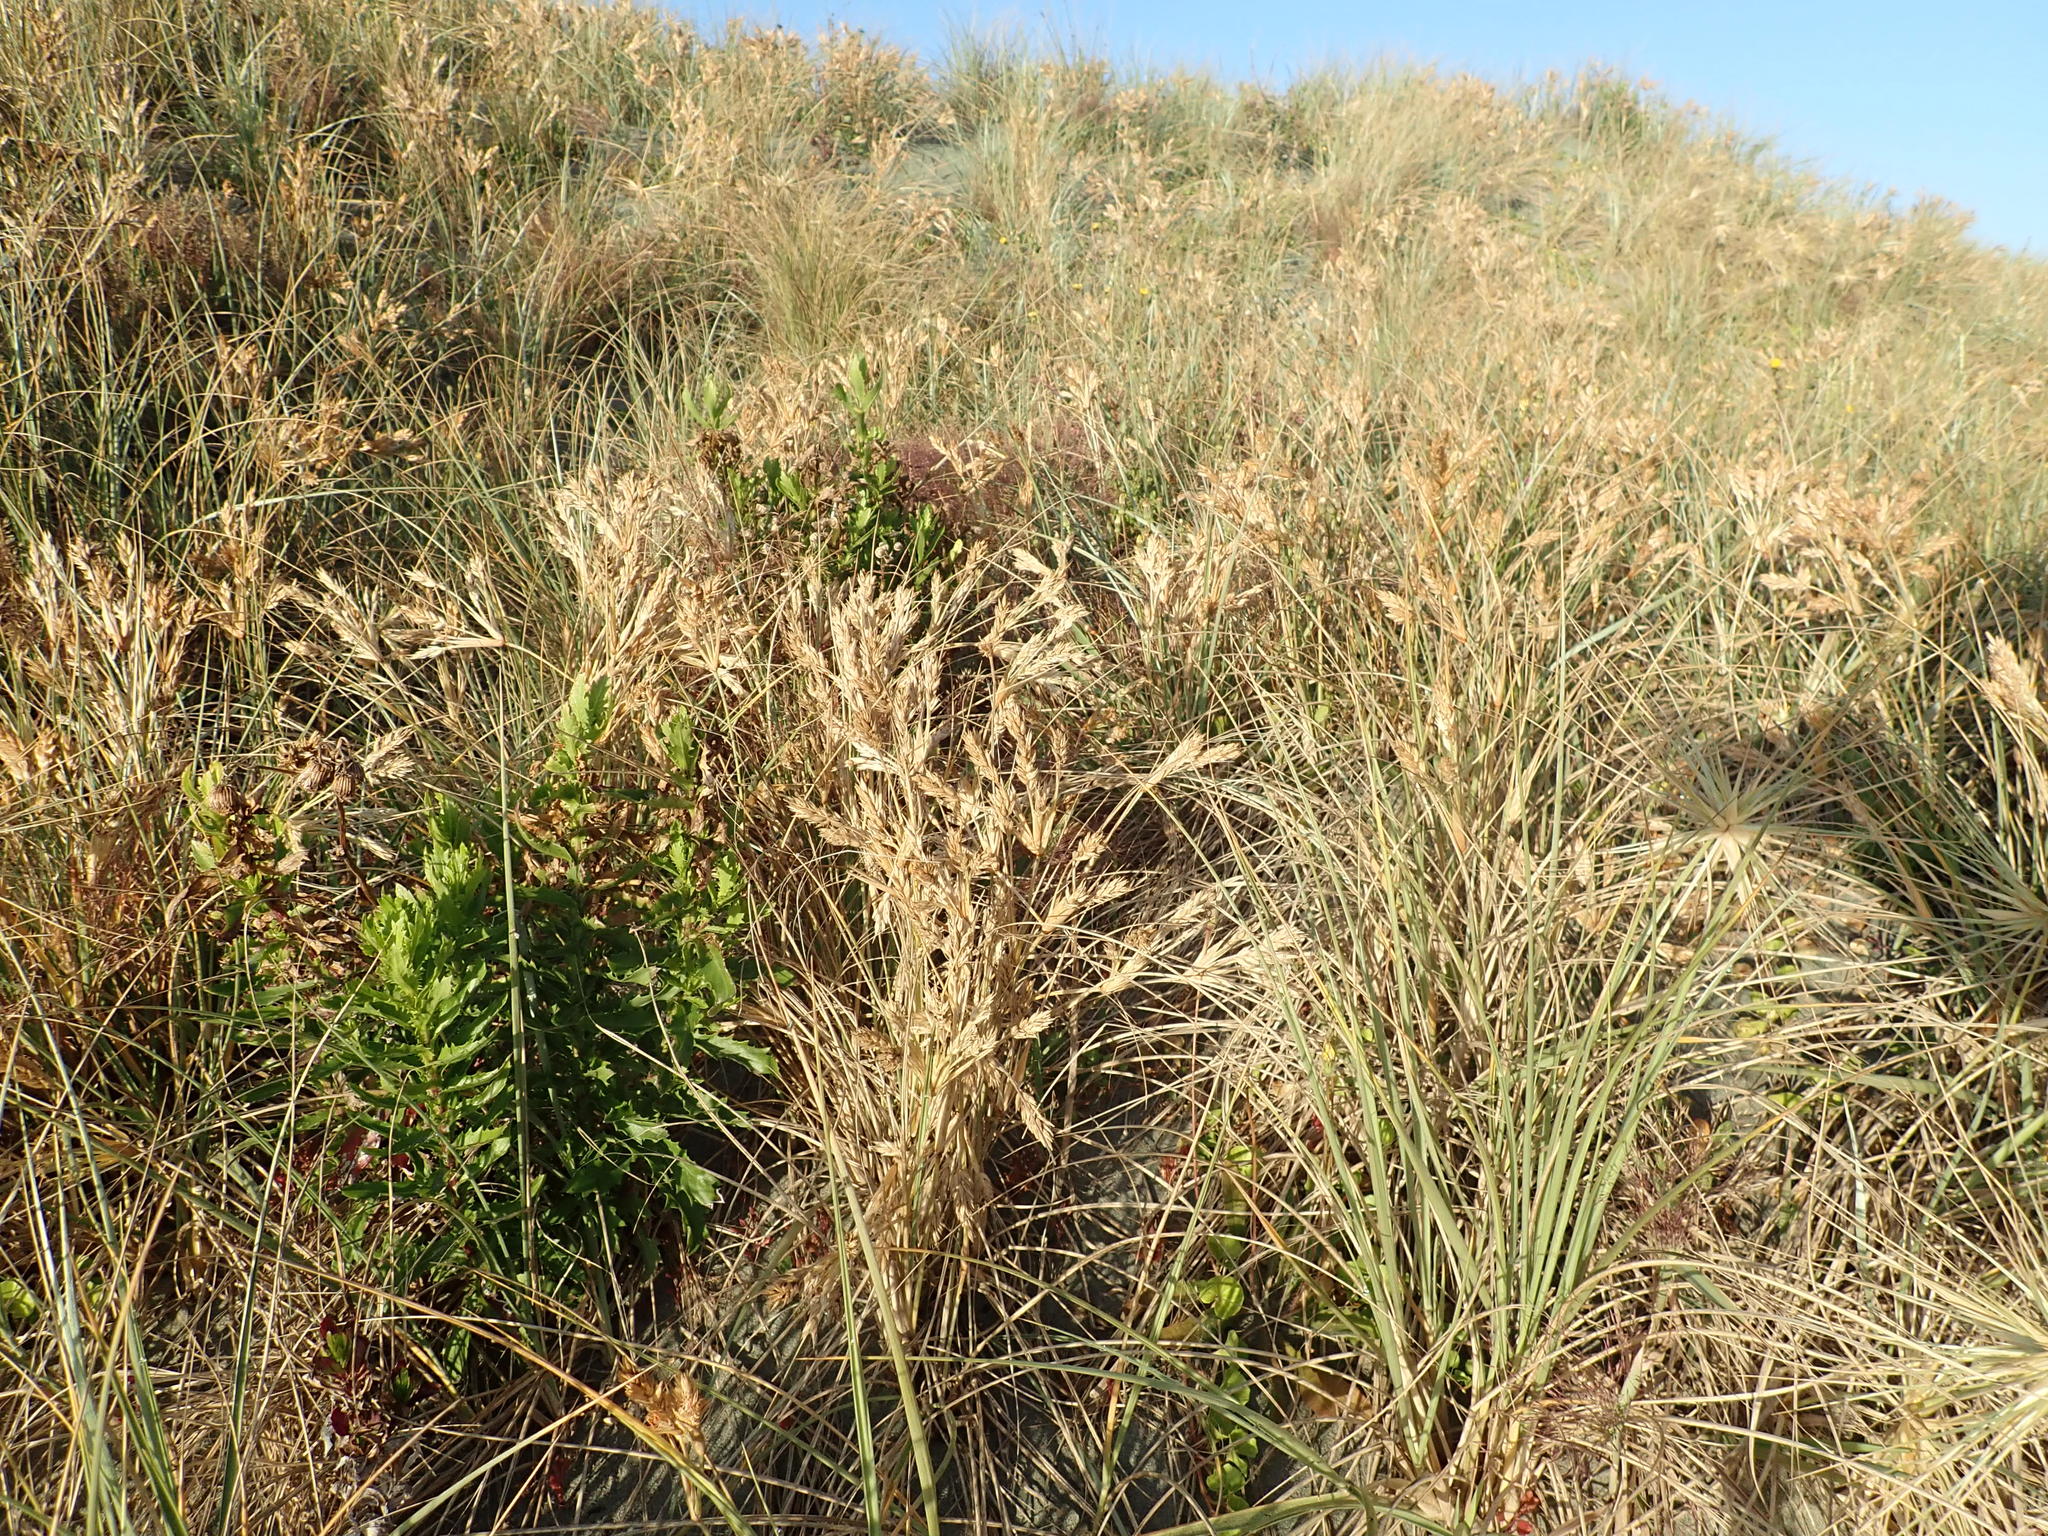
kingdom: Plantae
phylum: Tracheophyta
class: Magnoliopsida
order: Asterales
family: Asteraceae
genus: Senecio
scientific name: Senecio glastifolius
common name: Woad-leaved ragwort
